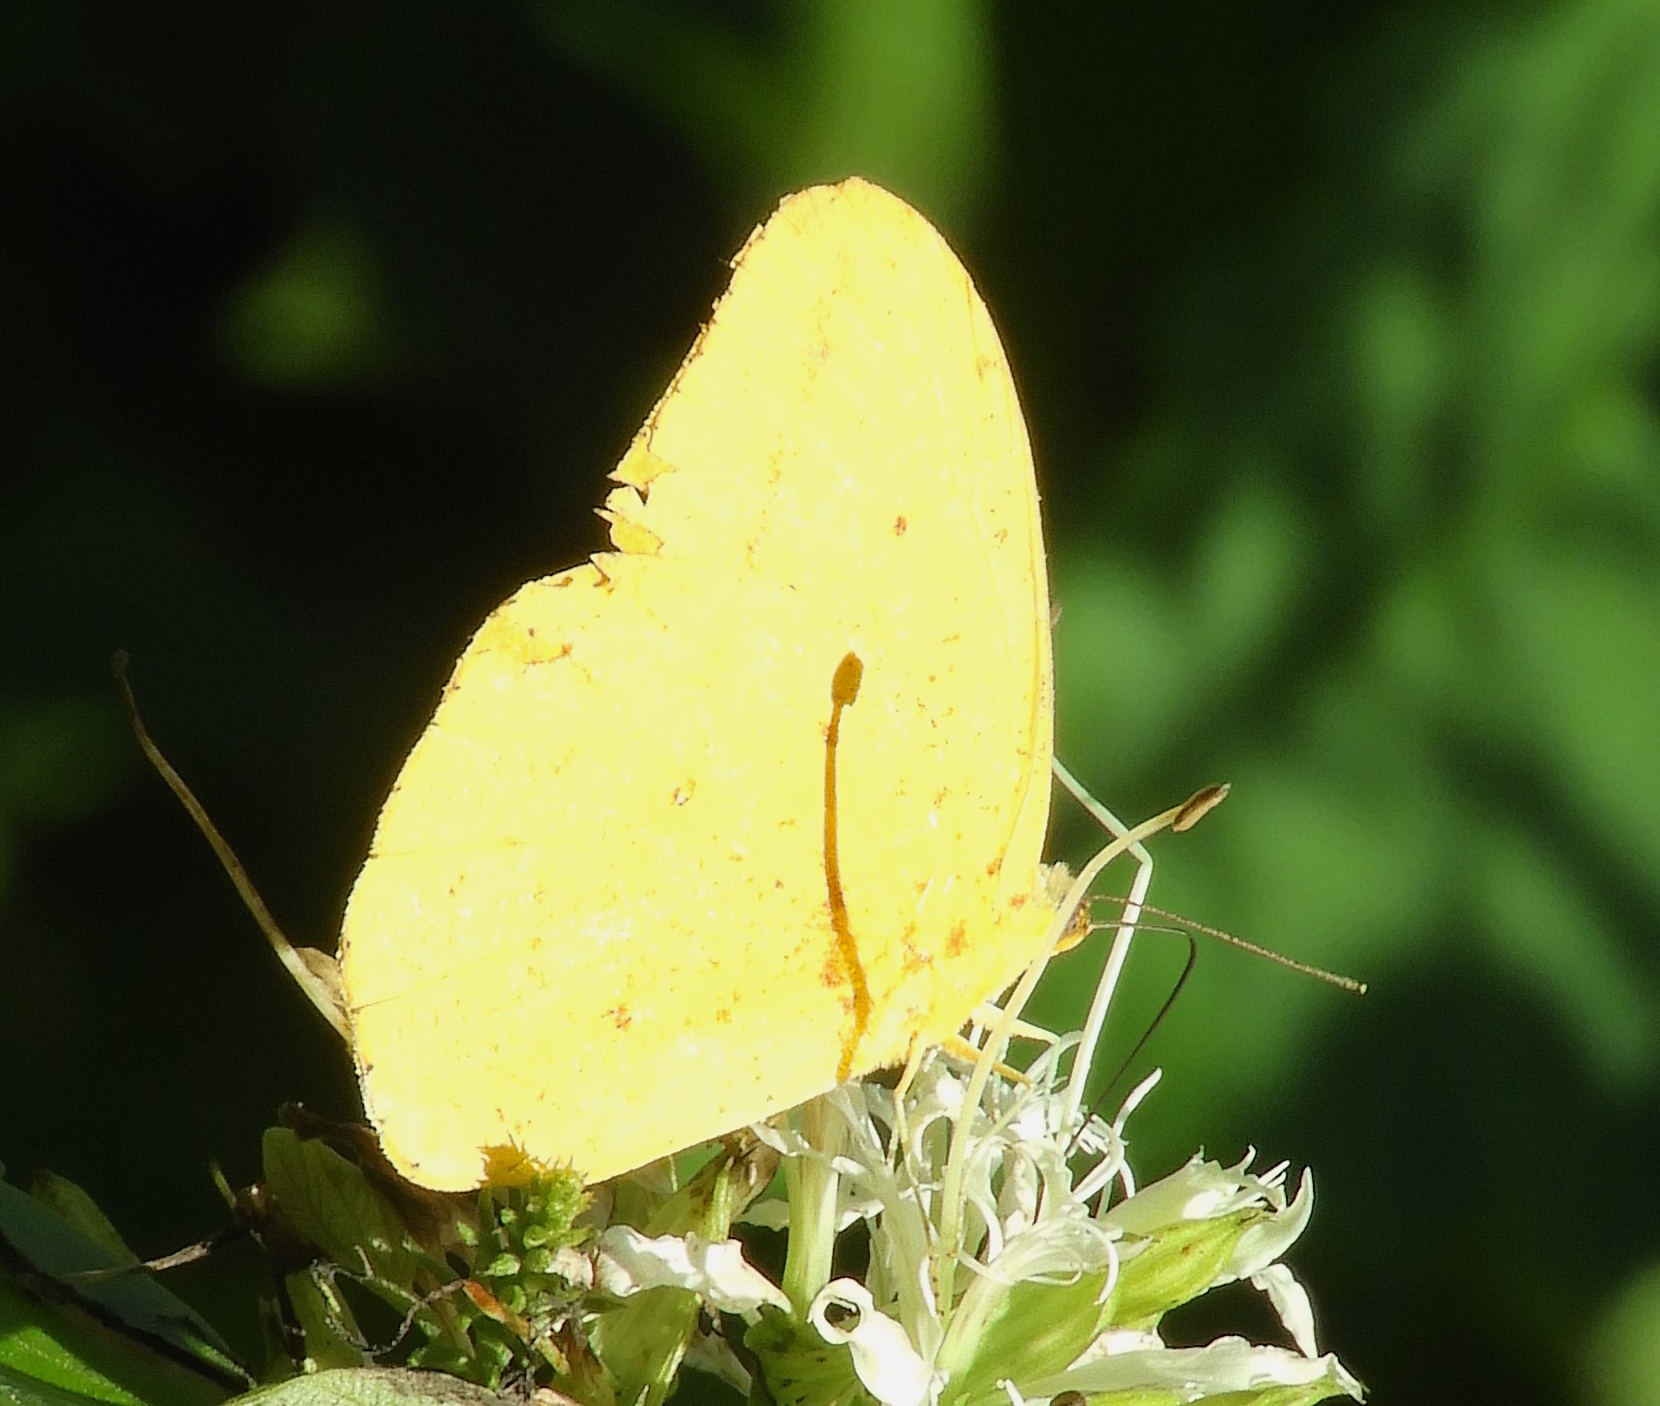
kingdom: Animalia
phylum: Arthropoda
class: Insecta
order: Lepidoptera
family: Pieridae
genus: Phoebis
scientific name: Phoebis agarithe
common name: Large orange sulphur
